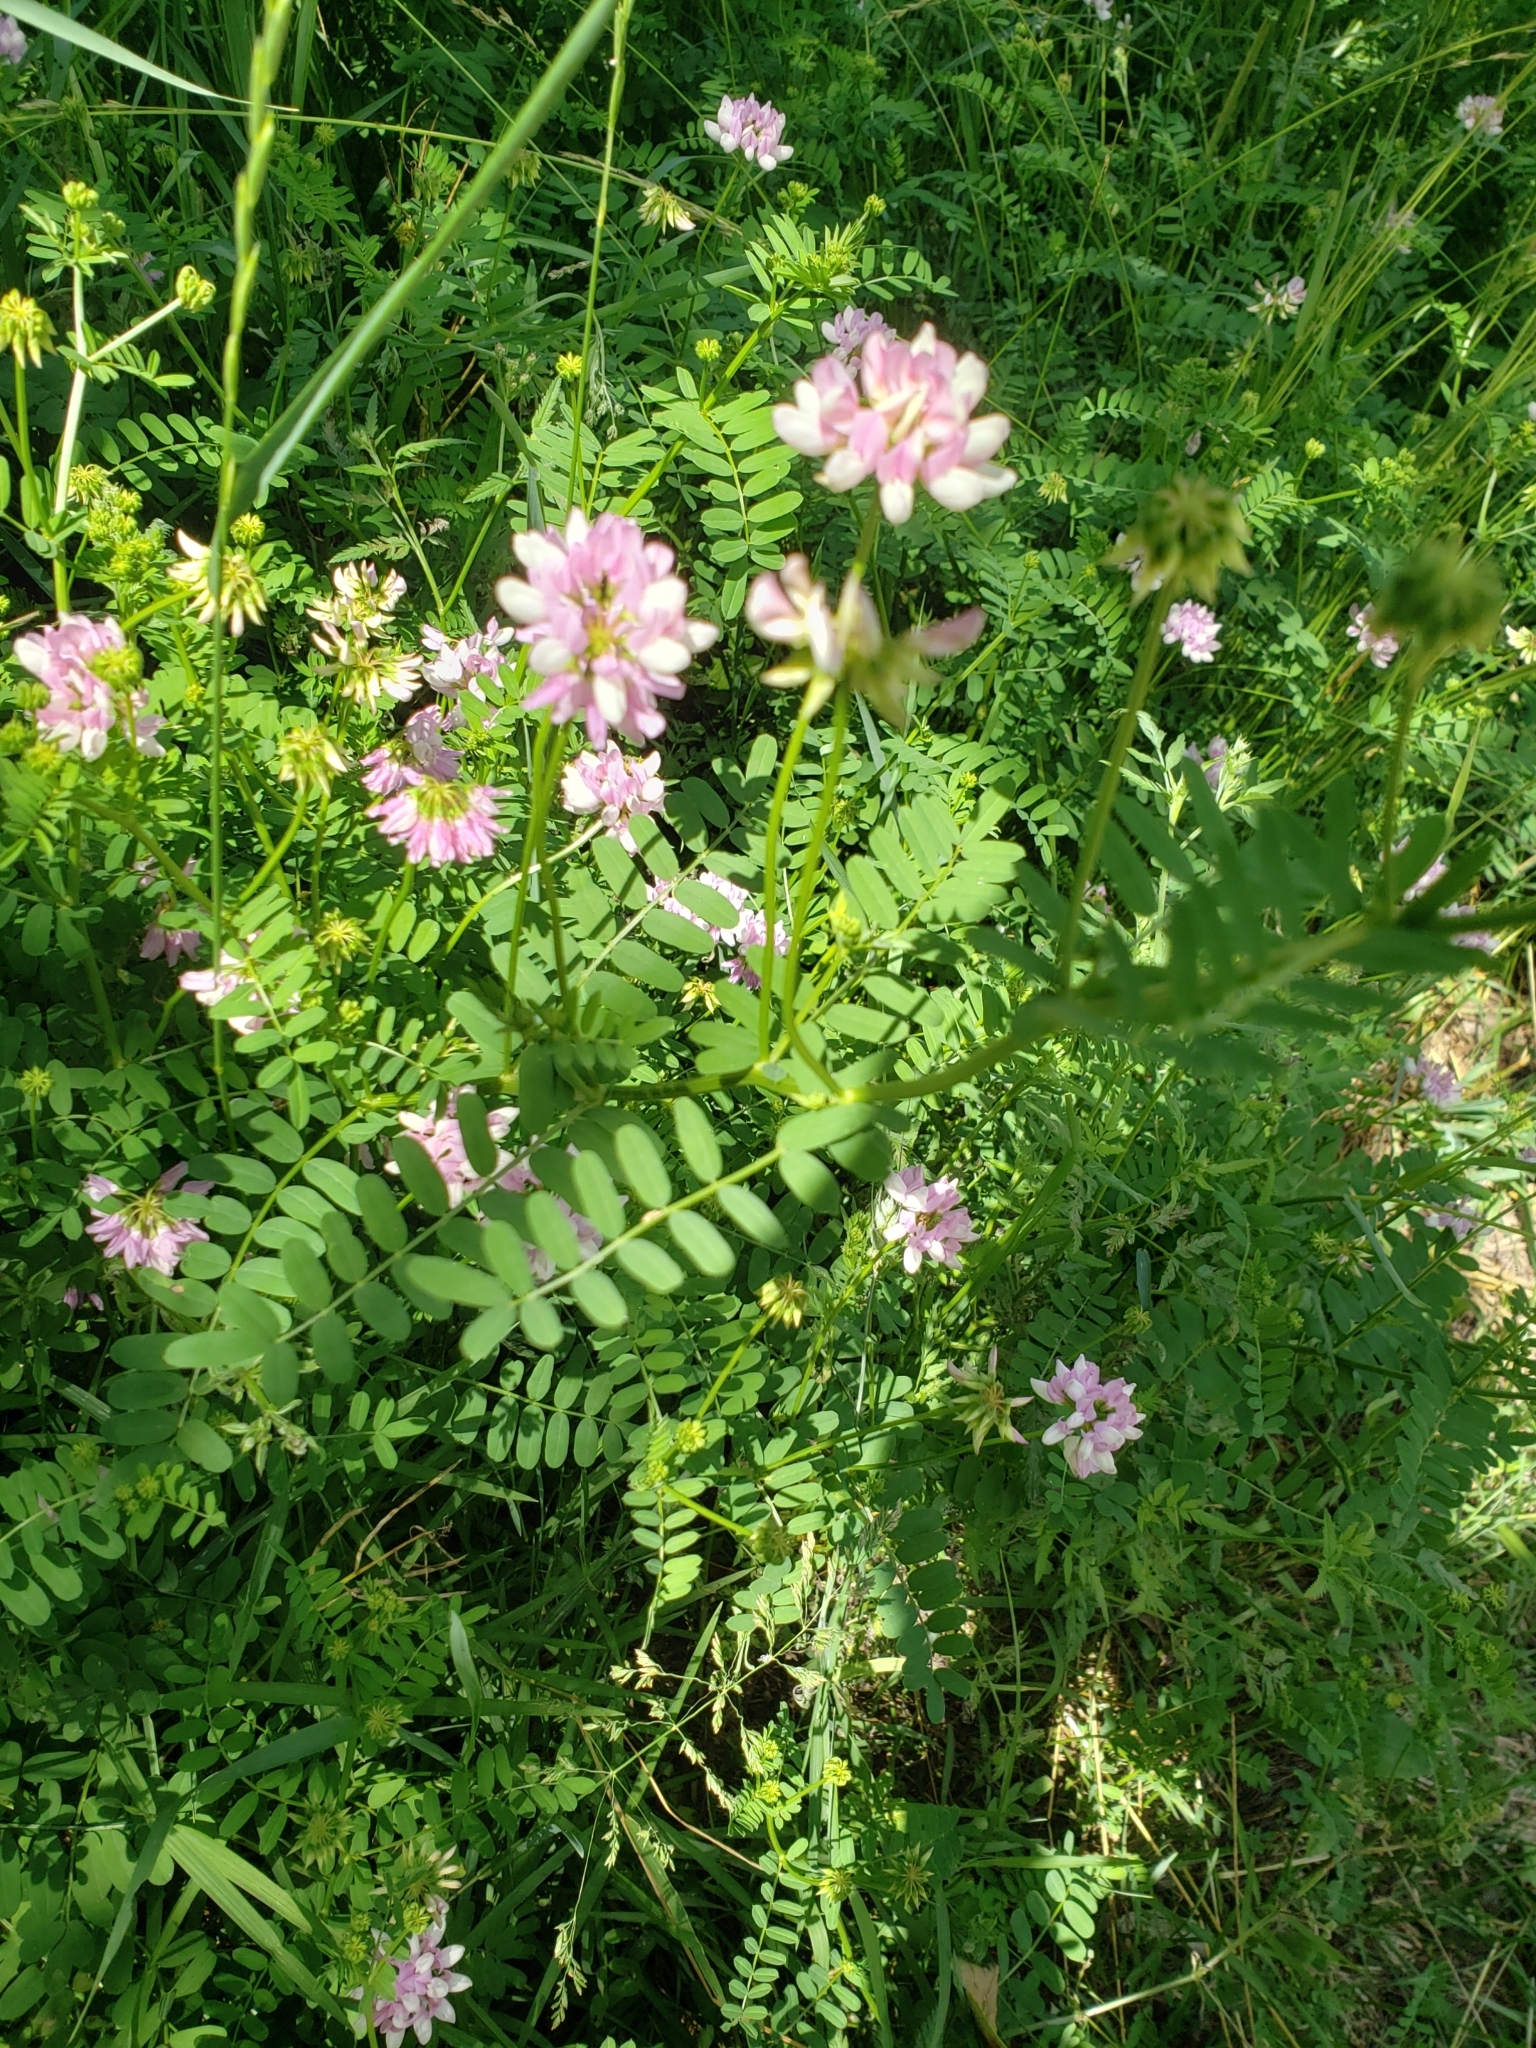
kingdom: Plantae
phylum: Tracheophyta
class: Magnoliopsida
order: Fabales
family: Fabaceae
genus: Coronilla
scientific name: Coronilla varia
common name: Crownvetch
